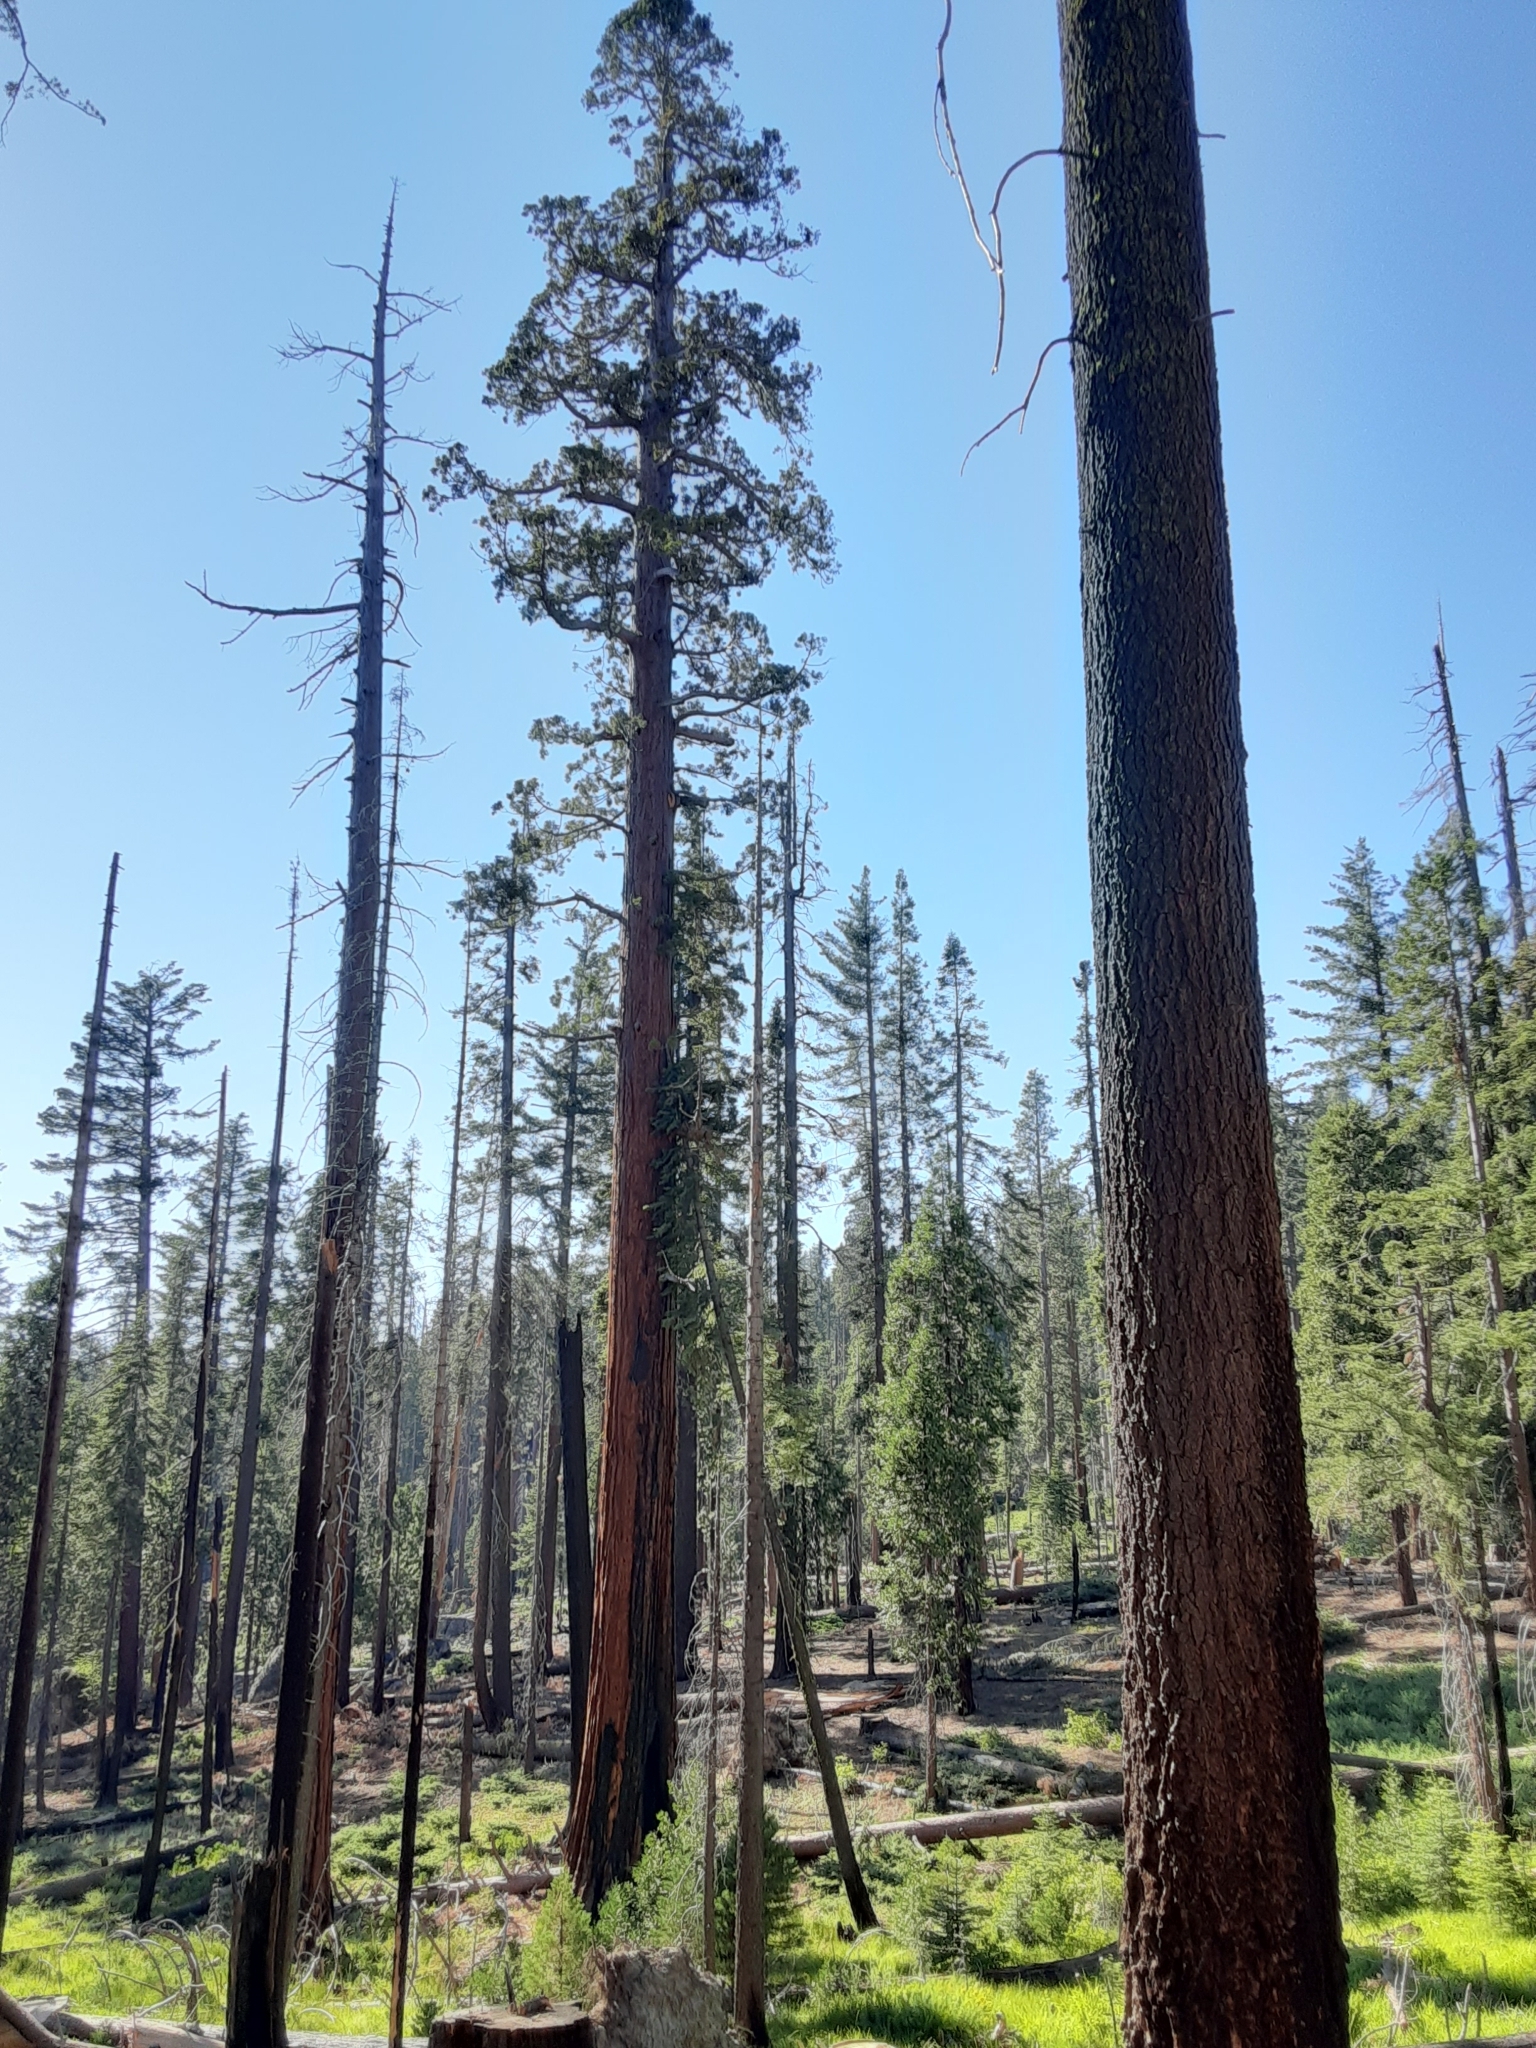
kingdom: Plantae
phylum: Tracheophyta
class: Pinopsida
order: Pinales
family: Cupressaceae
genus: Sequoiadendron
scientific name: Sequoiadendron giganteum
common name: Wellingtonia
